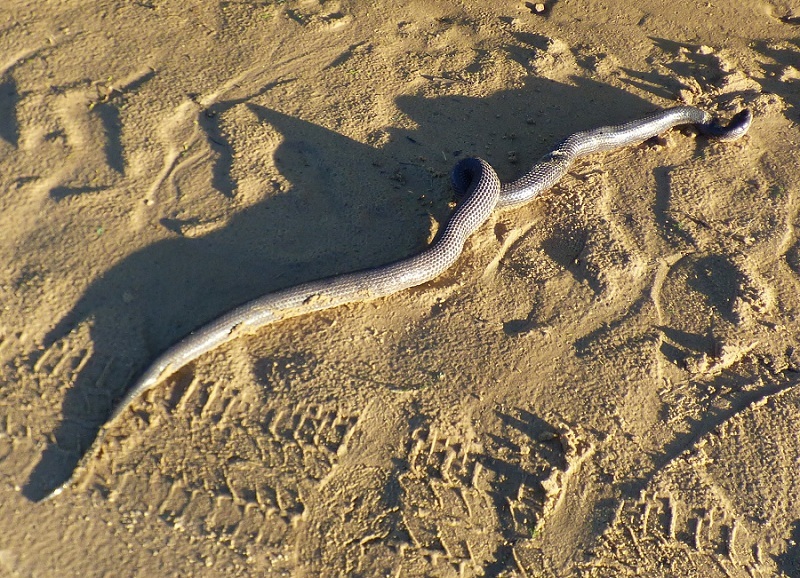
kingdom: Animalia
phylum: Chordata
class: Squamata
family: Colubridae
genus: Boiruna
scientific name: Boiruna maculata
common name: Mussurana
